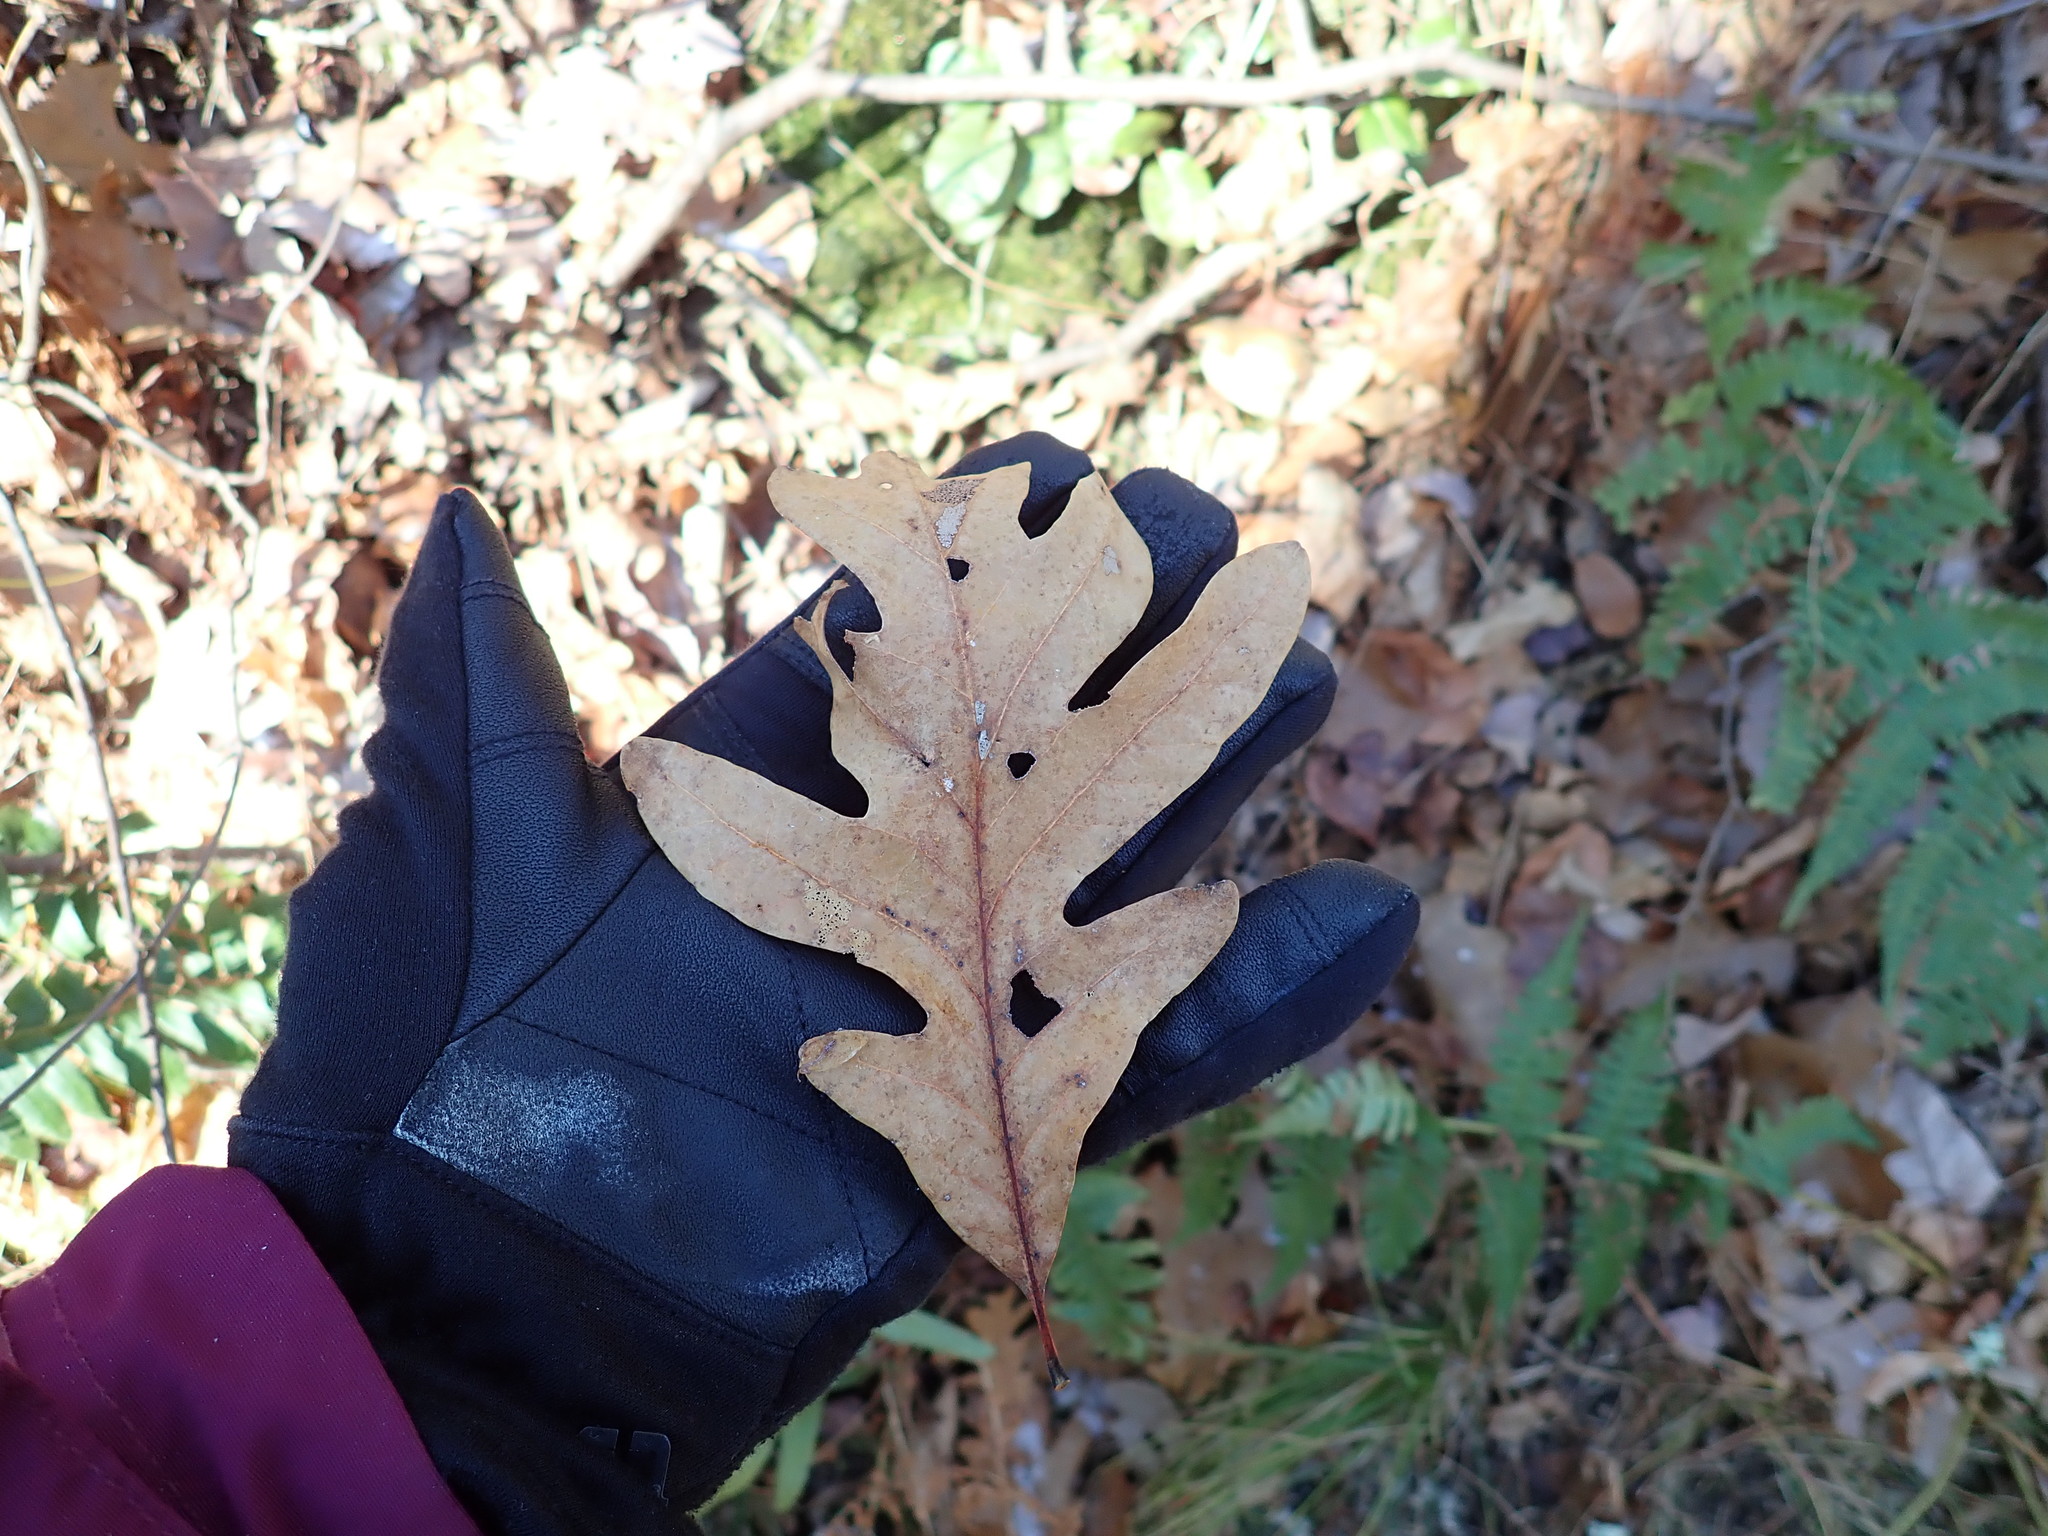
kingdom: Plantae
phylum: Tracheophyta
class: Magnoliopsida
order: Fagales
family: Fagaceae
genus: Quercus
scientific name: Quercus alba
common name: White oak
